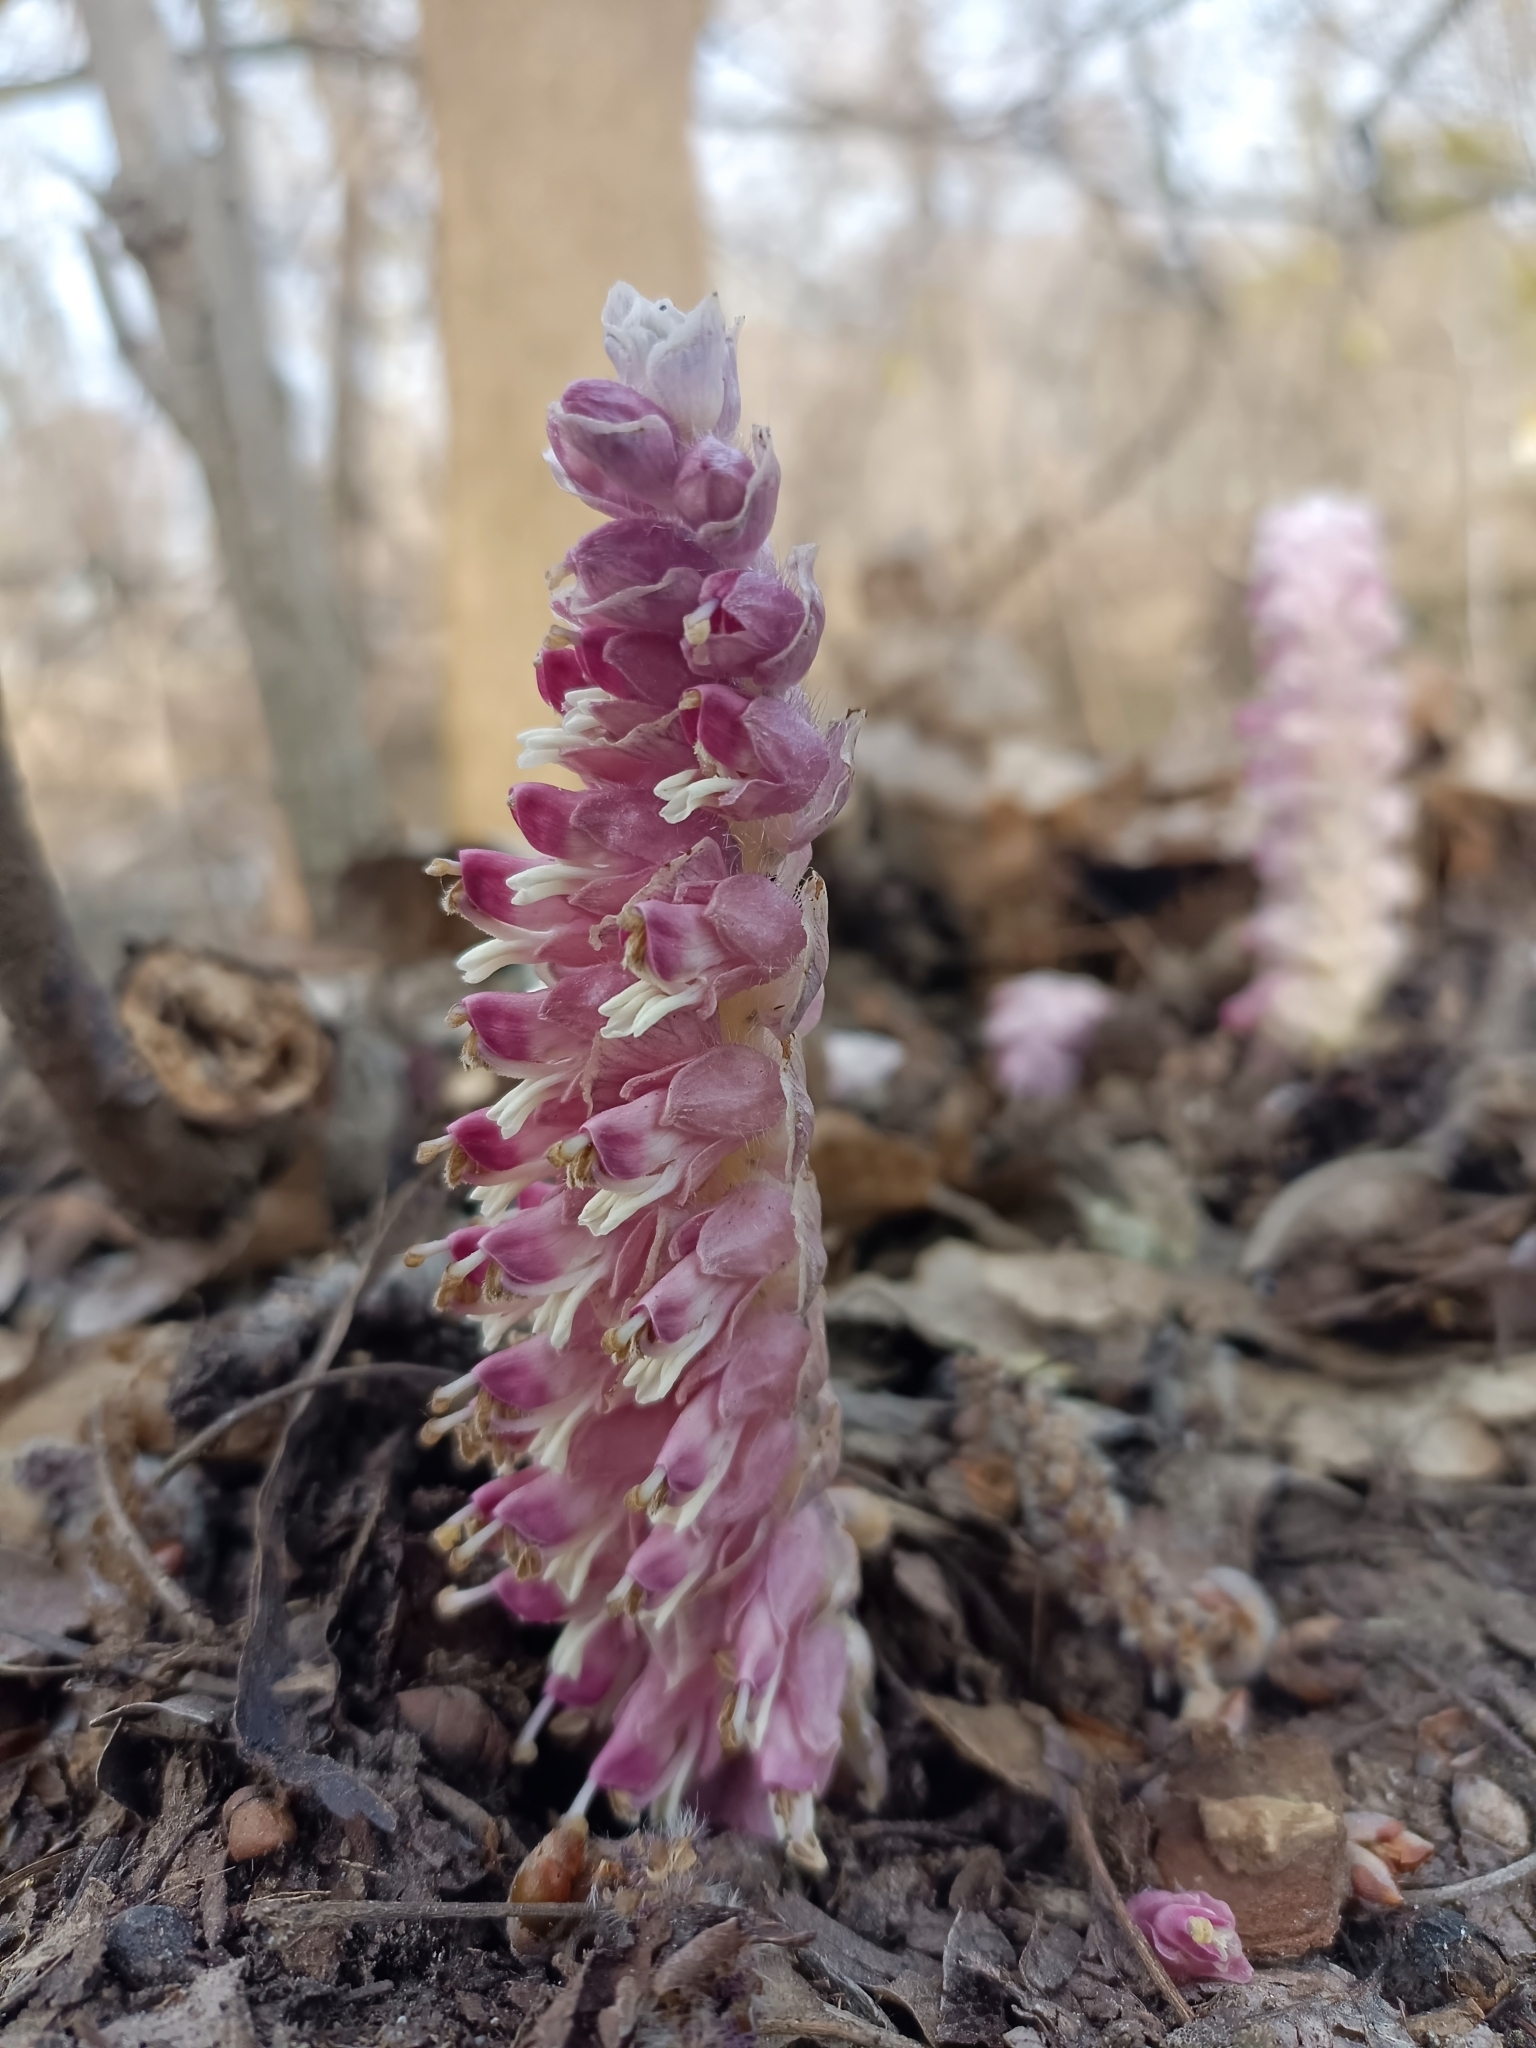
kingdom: Plantae
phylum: Tracheophyta
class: Magnoliopsida
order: Lamiales
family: Orobanchaceae
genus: Lathraea
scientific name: Lathraea squamaria
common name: Toothwort
